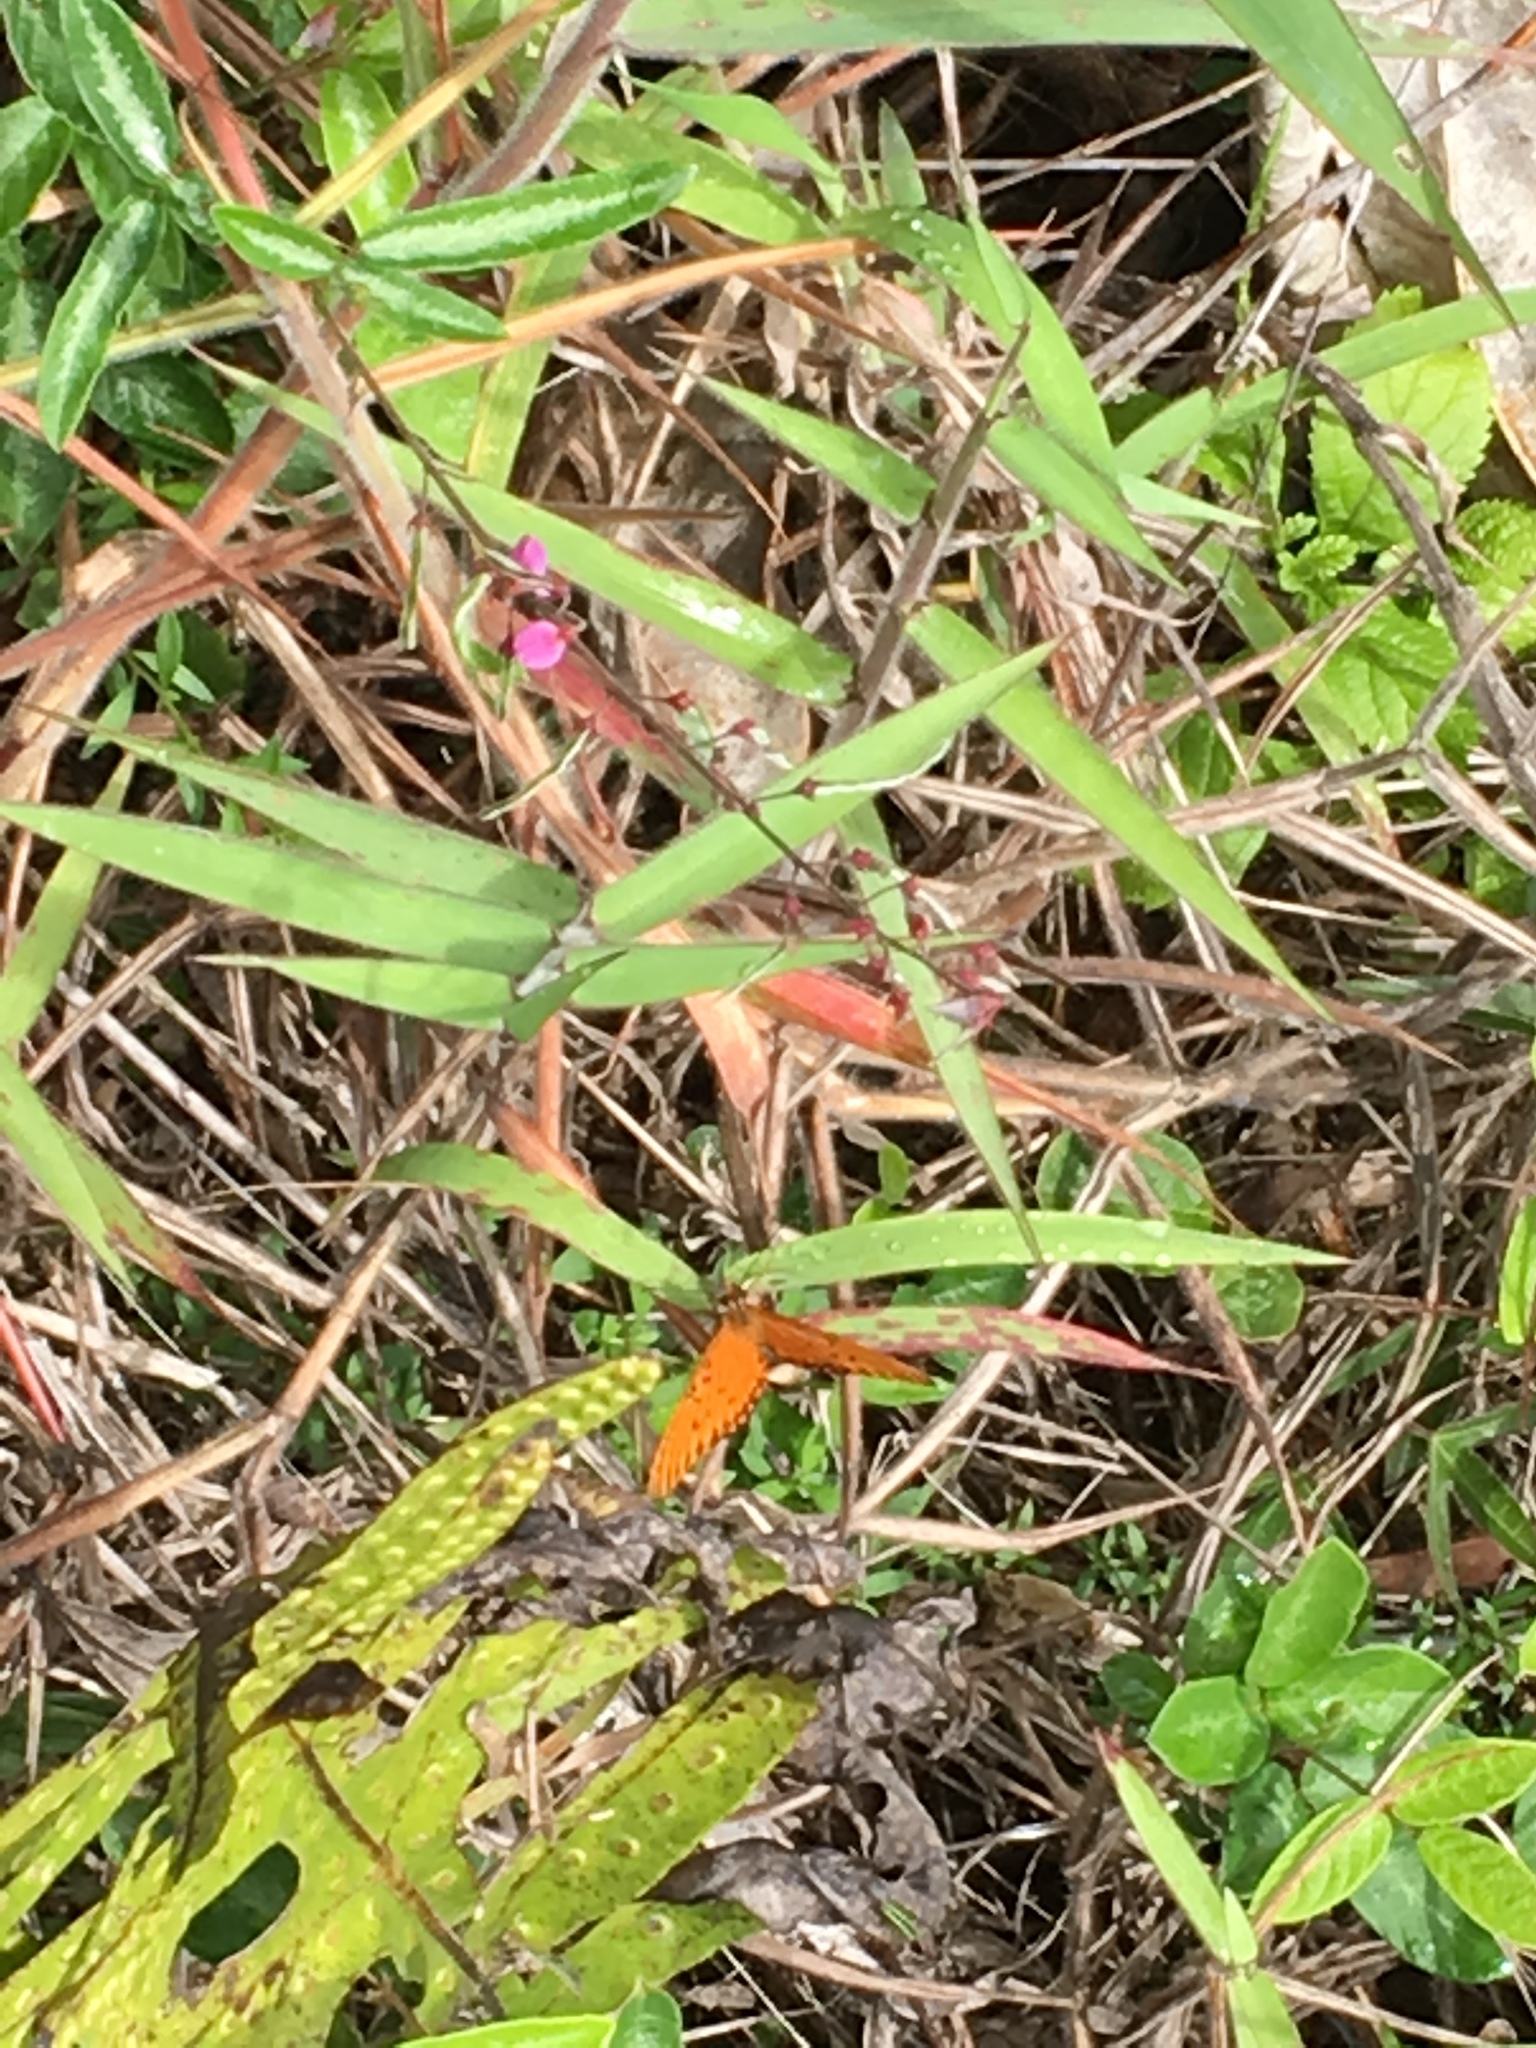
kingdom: Animalia
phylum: Arthropoda
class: Insecta
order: Lepidoptera
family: Nymphalidae
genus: Dione
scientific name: Dione vanillae
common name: Gulf fritillary
